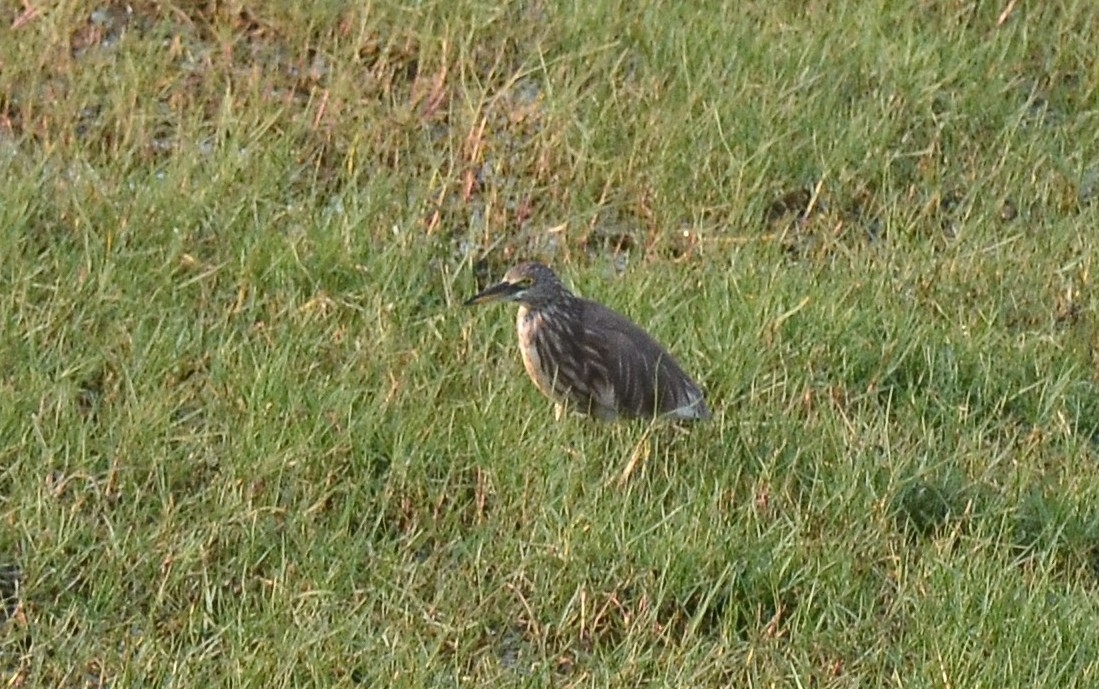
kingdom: Animalia
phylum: Chordata
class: Aves
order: Pelecaniformes
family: Ardeidae
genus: Ardeola
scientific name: Ardeola grayii
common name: Indian pond heron
